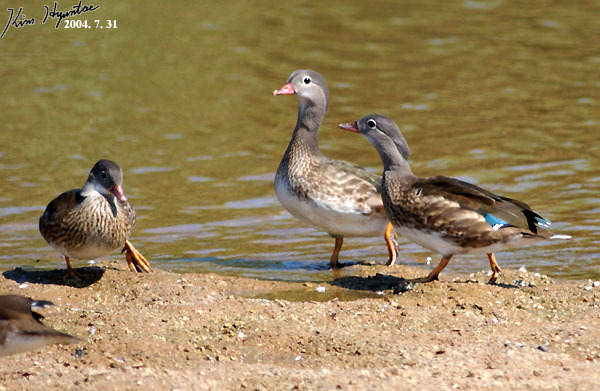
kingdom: Animalia
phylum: Chordata
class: Aves
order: Anseriformes
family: Anatidae
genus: Aix
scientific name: Aix galericulata
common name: Mandarin duck
